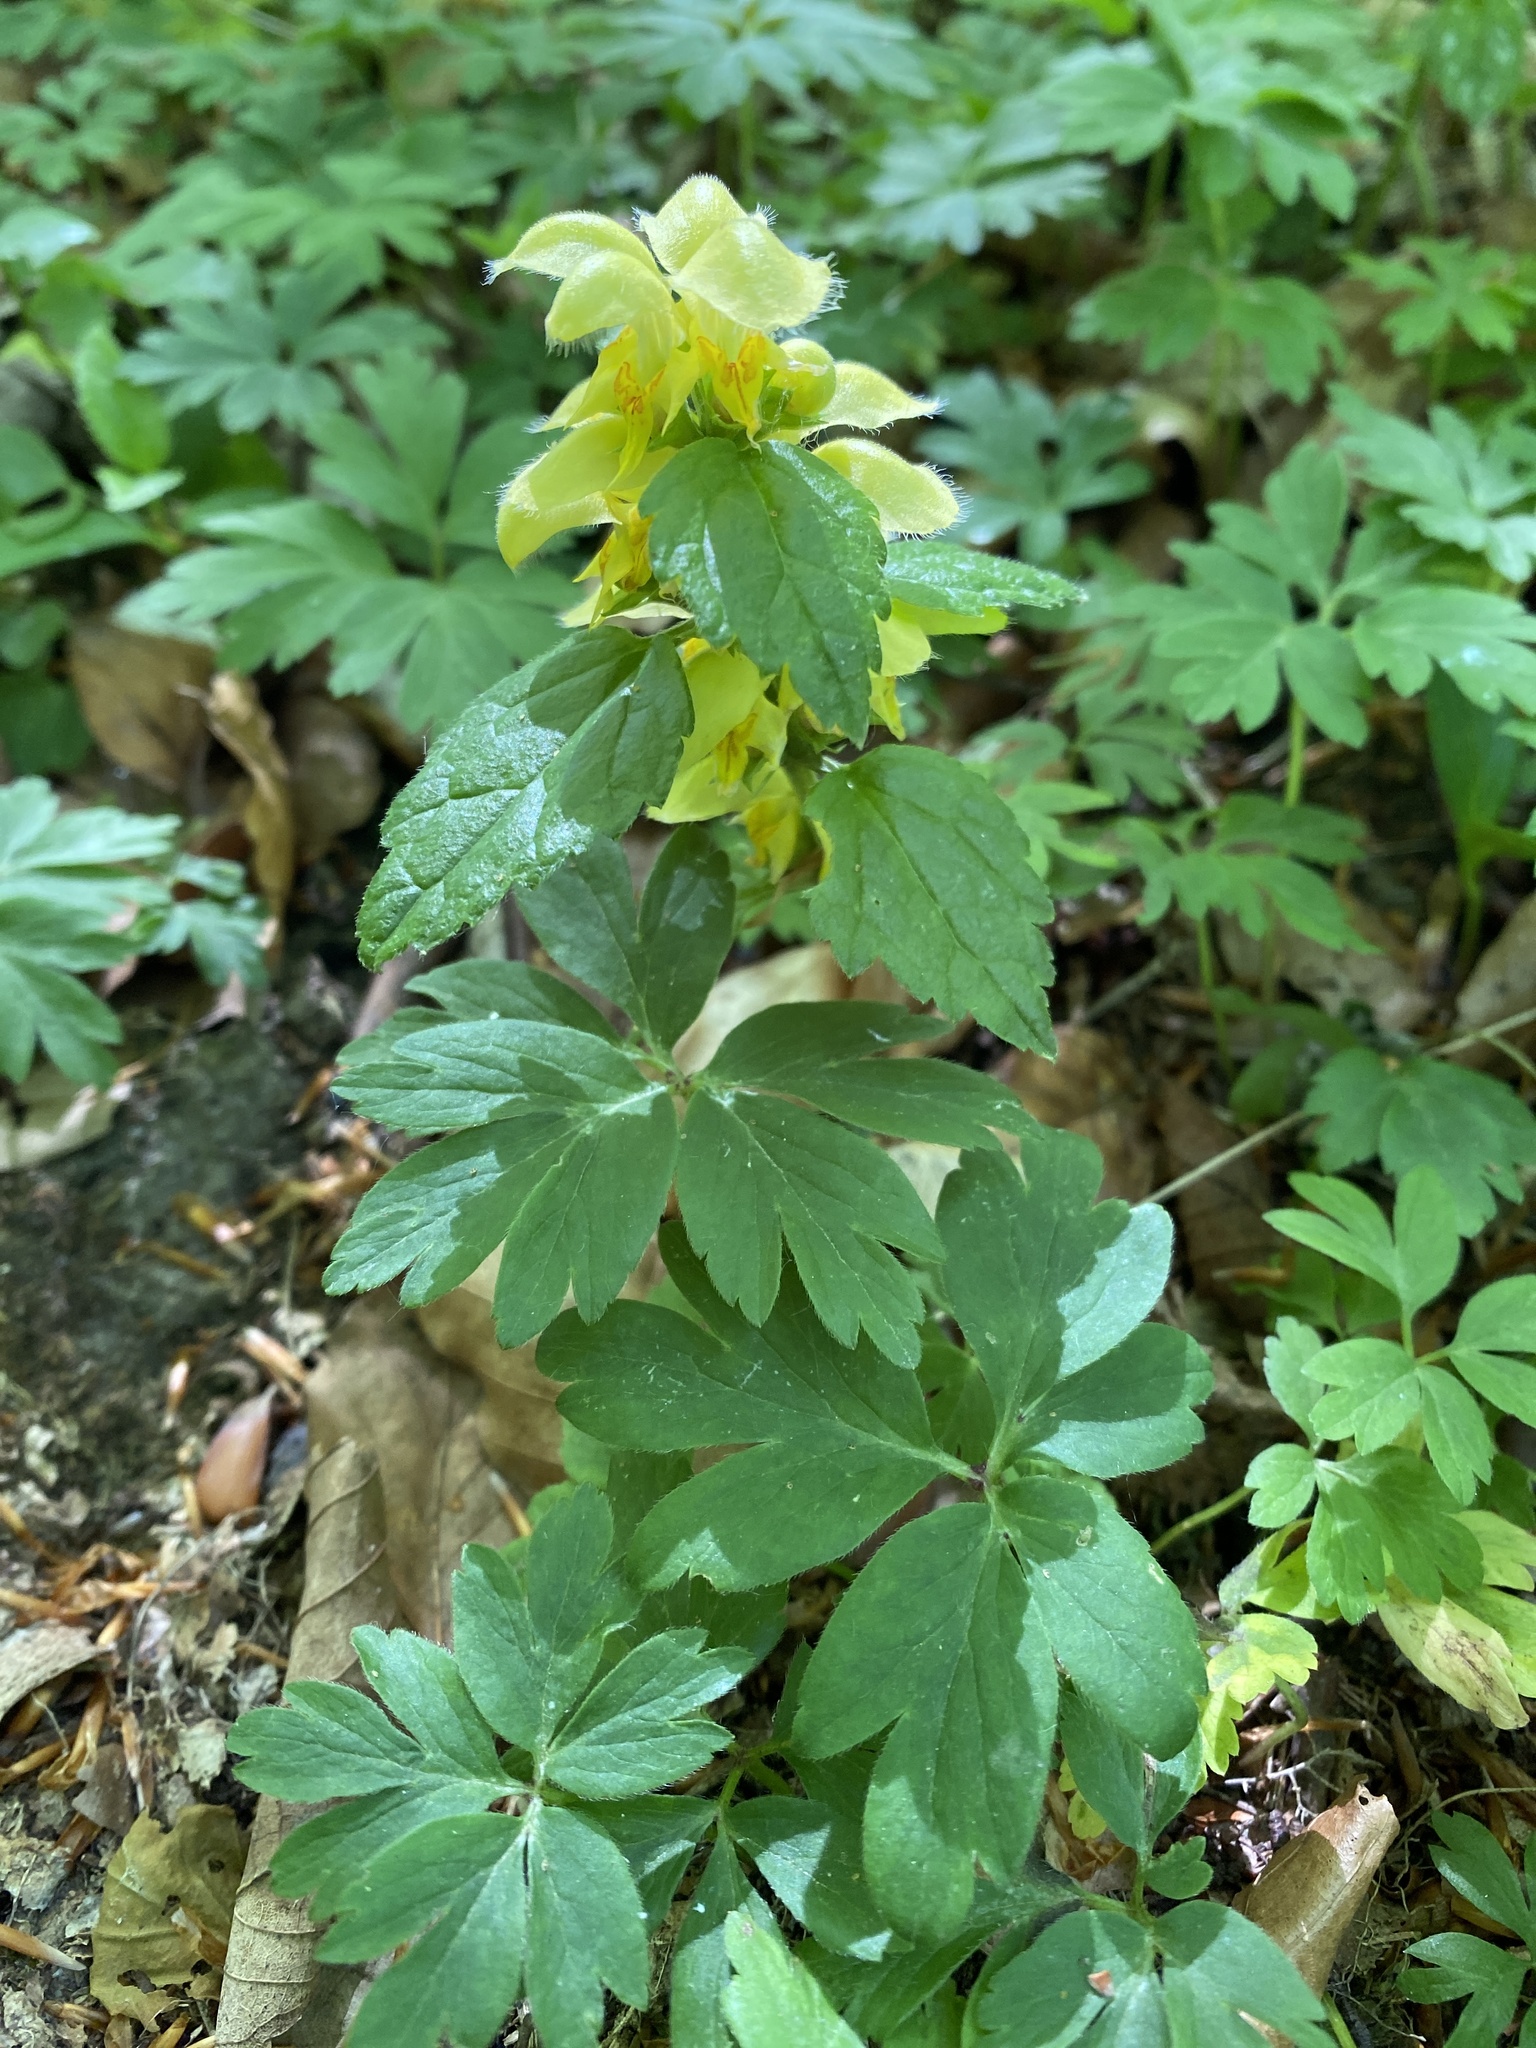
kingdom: Plantae
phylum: Tracheophyta
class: Magnoliopsida
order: Lamiales
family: Lamiaceae
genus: Lamium
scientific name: Lamium galeobdolon
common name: Yellow archangel
